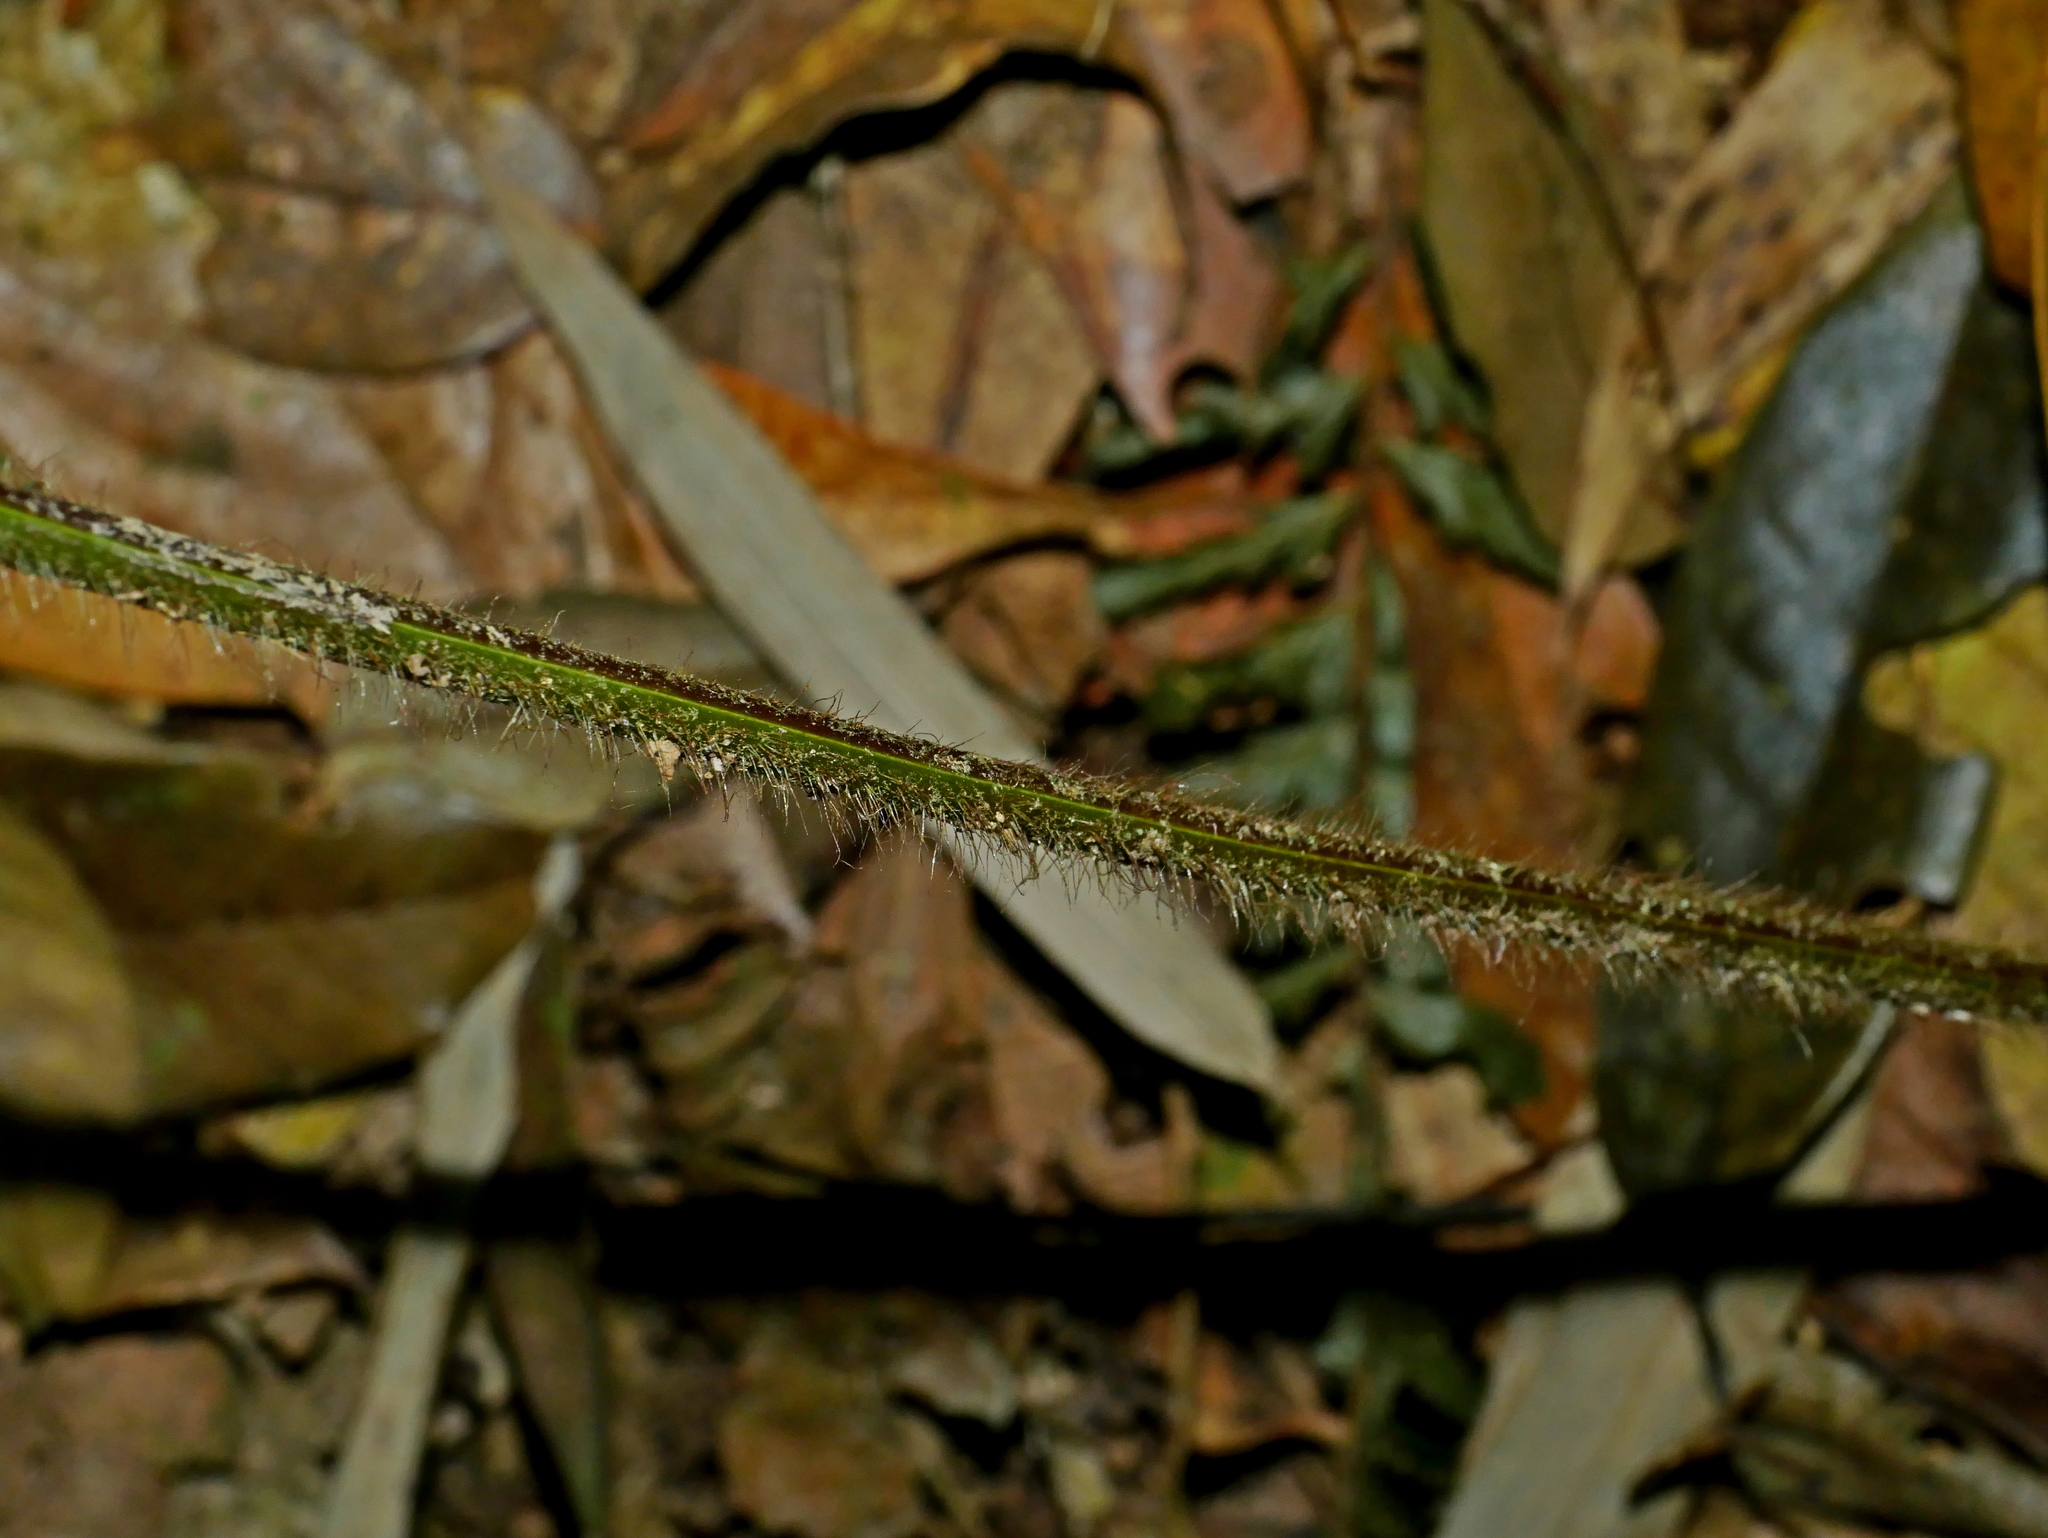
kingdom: Plantae
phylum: Tracheophyta
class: Polypodiopsida
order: Polypodiales
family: Dennstaedtiaceae
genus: Microlepia
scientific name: Microlepia trichocarpa
